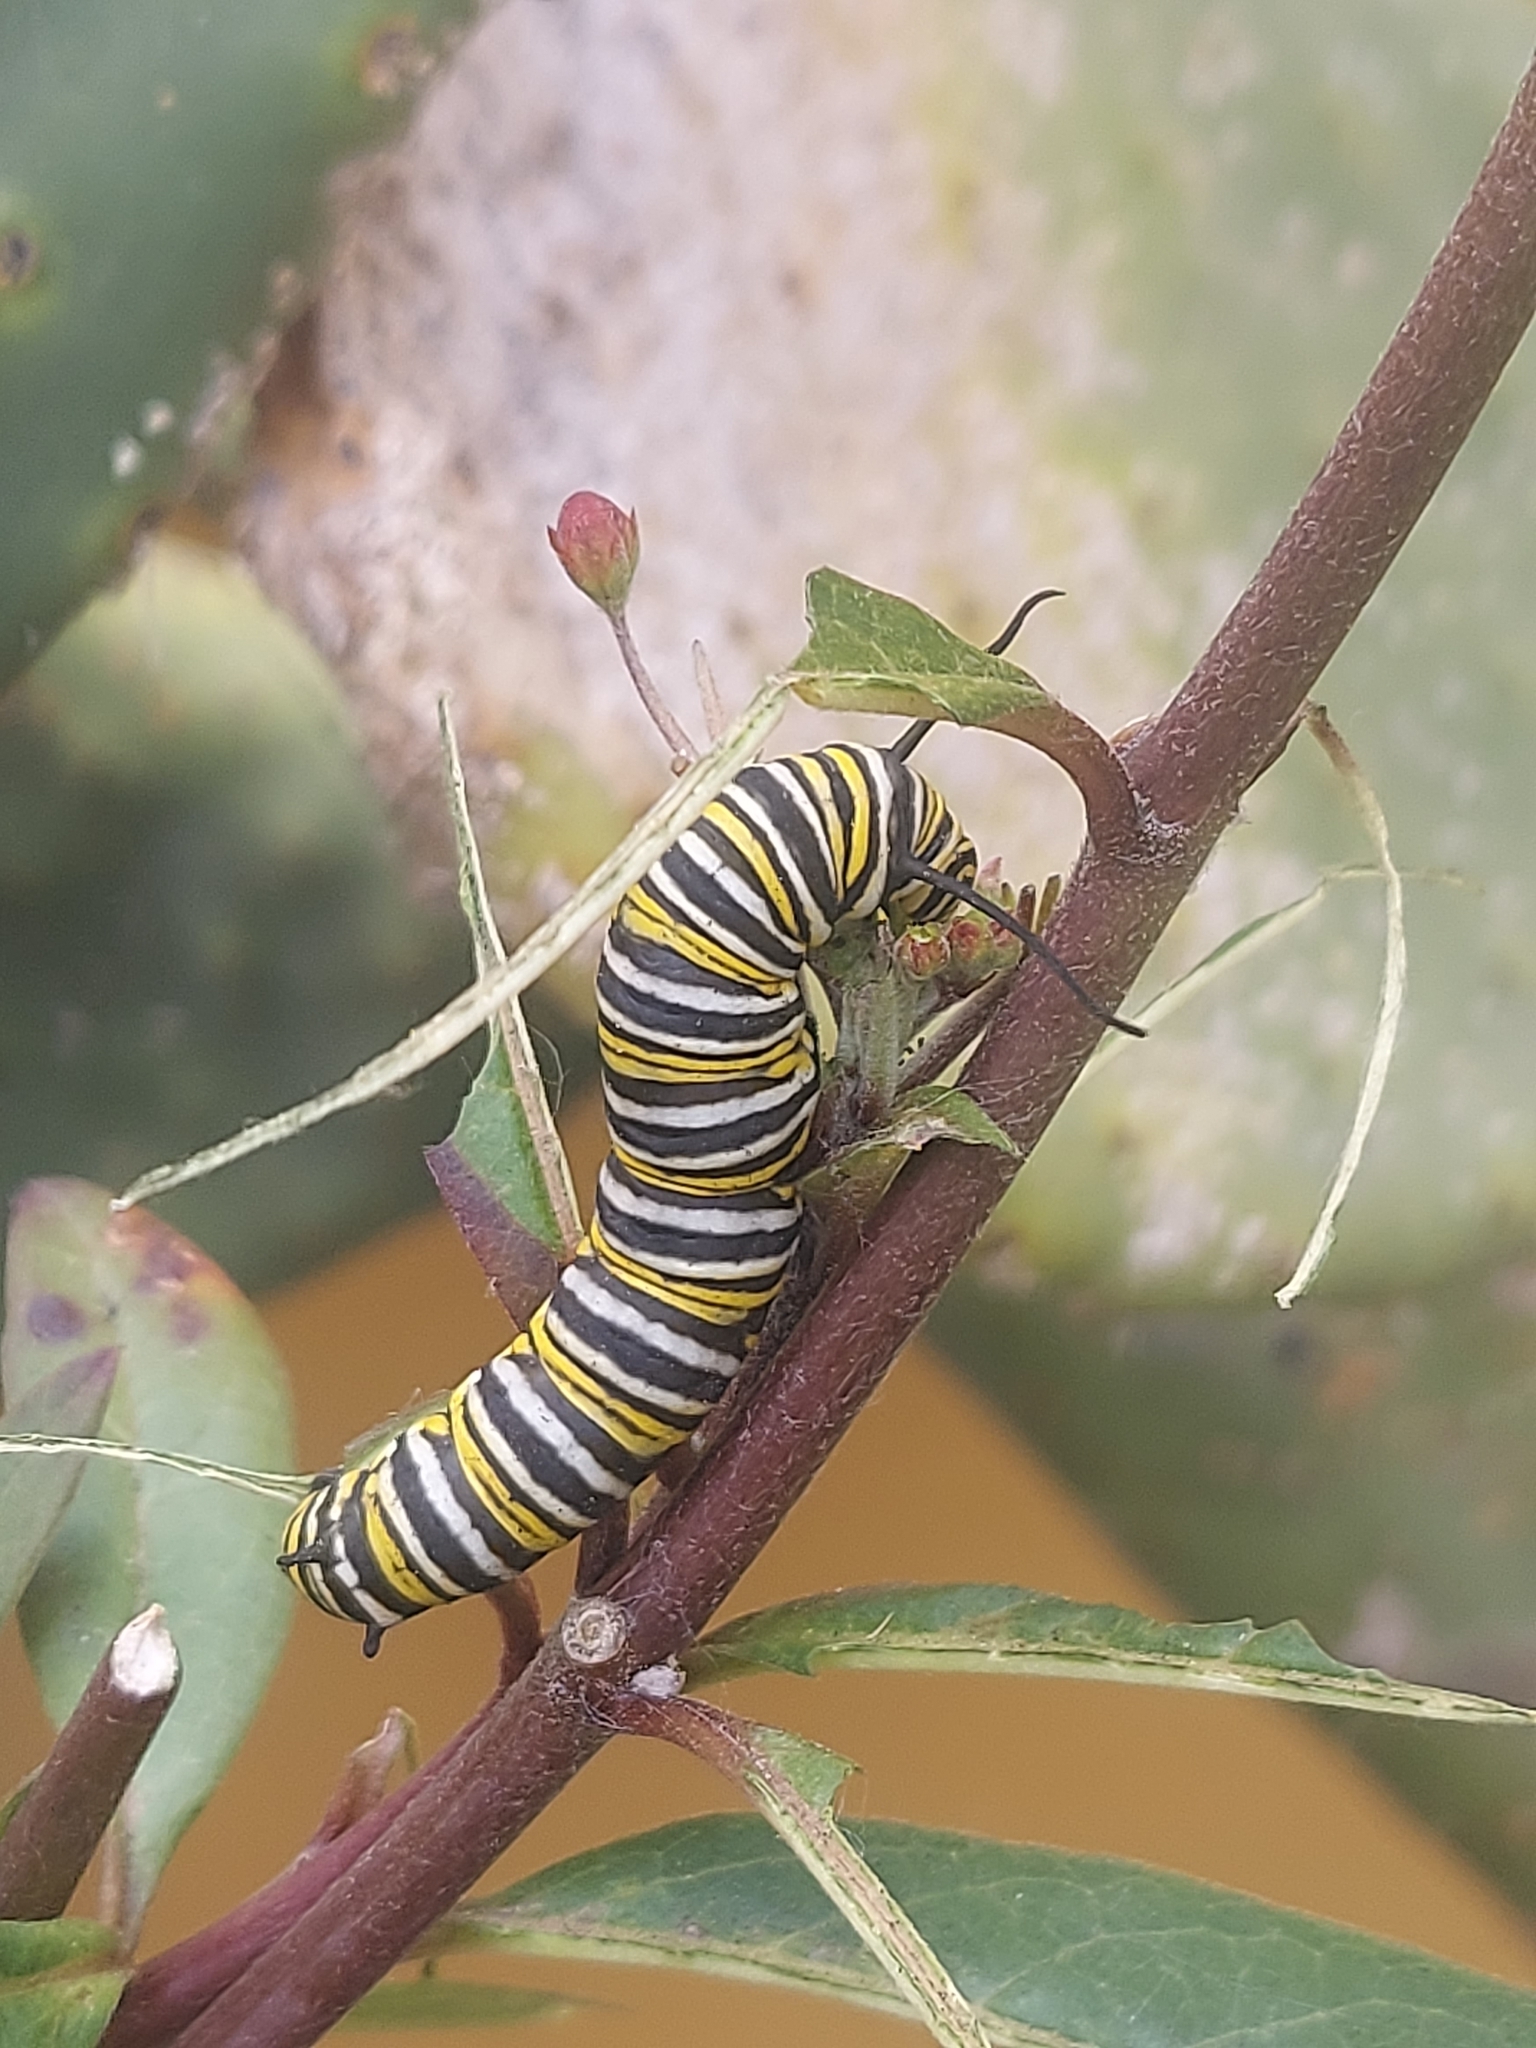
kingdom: Animalia
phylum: Arthropoda
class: Insecta
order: Lepidoptera
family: Nymphalidae
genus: Danaus
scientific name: Danaus plexippus
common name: Monarch
